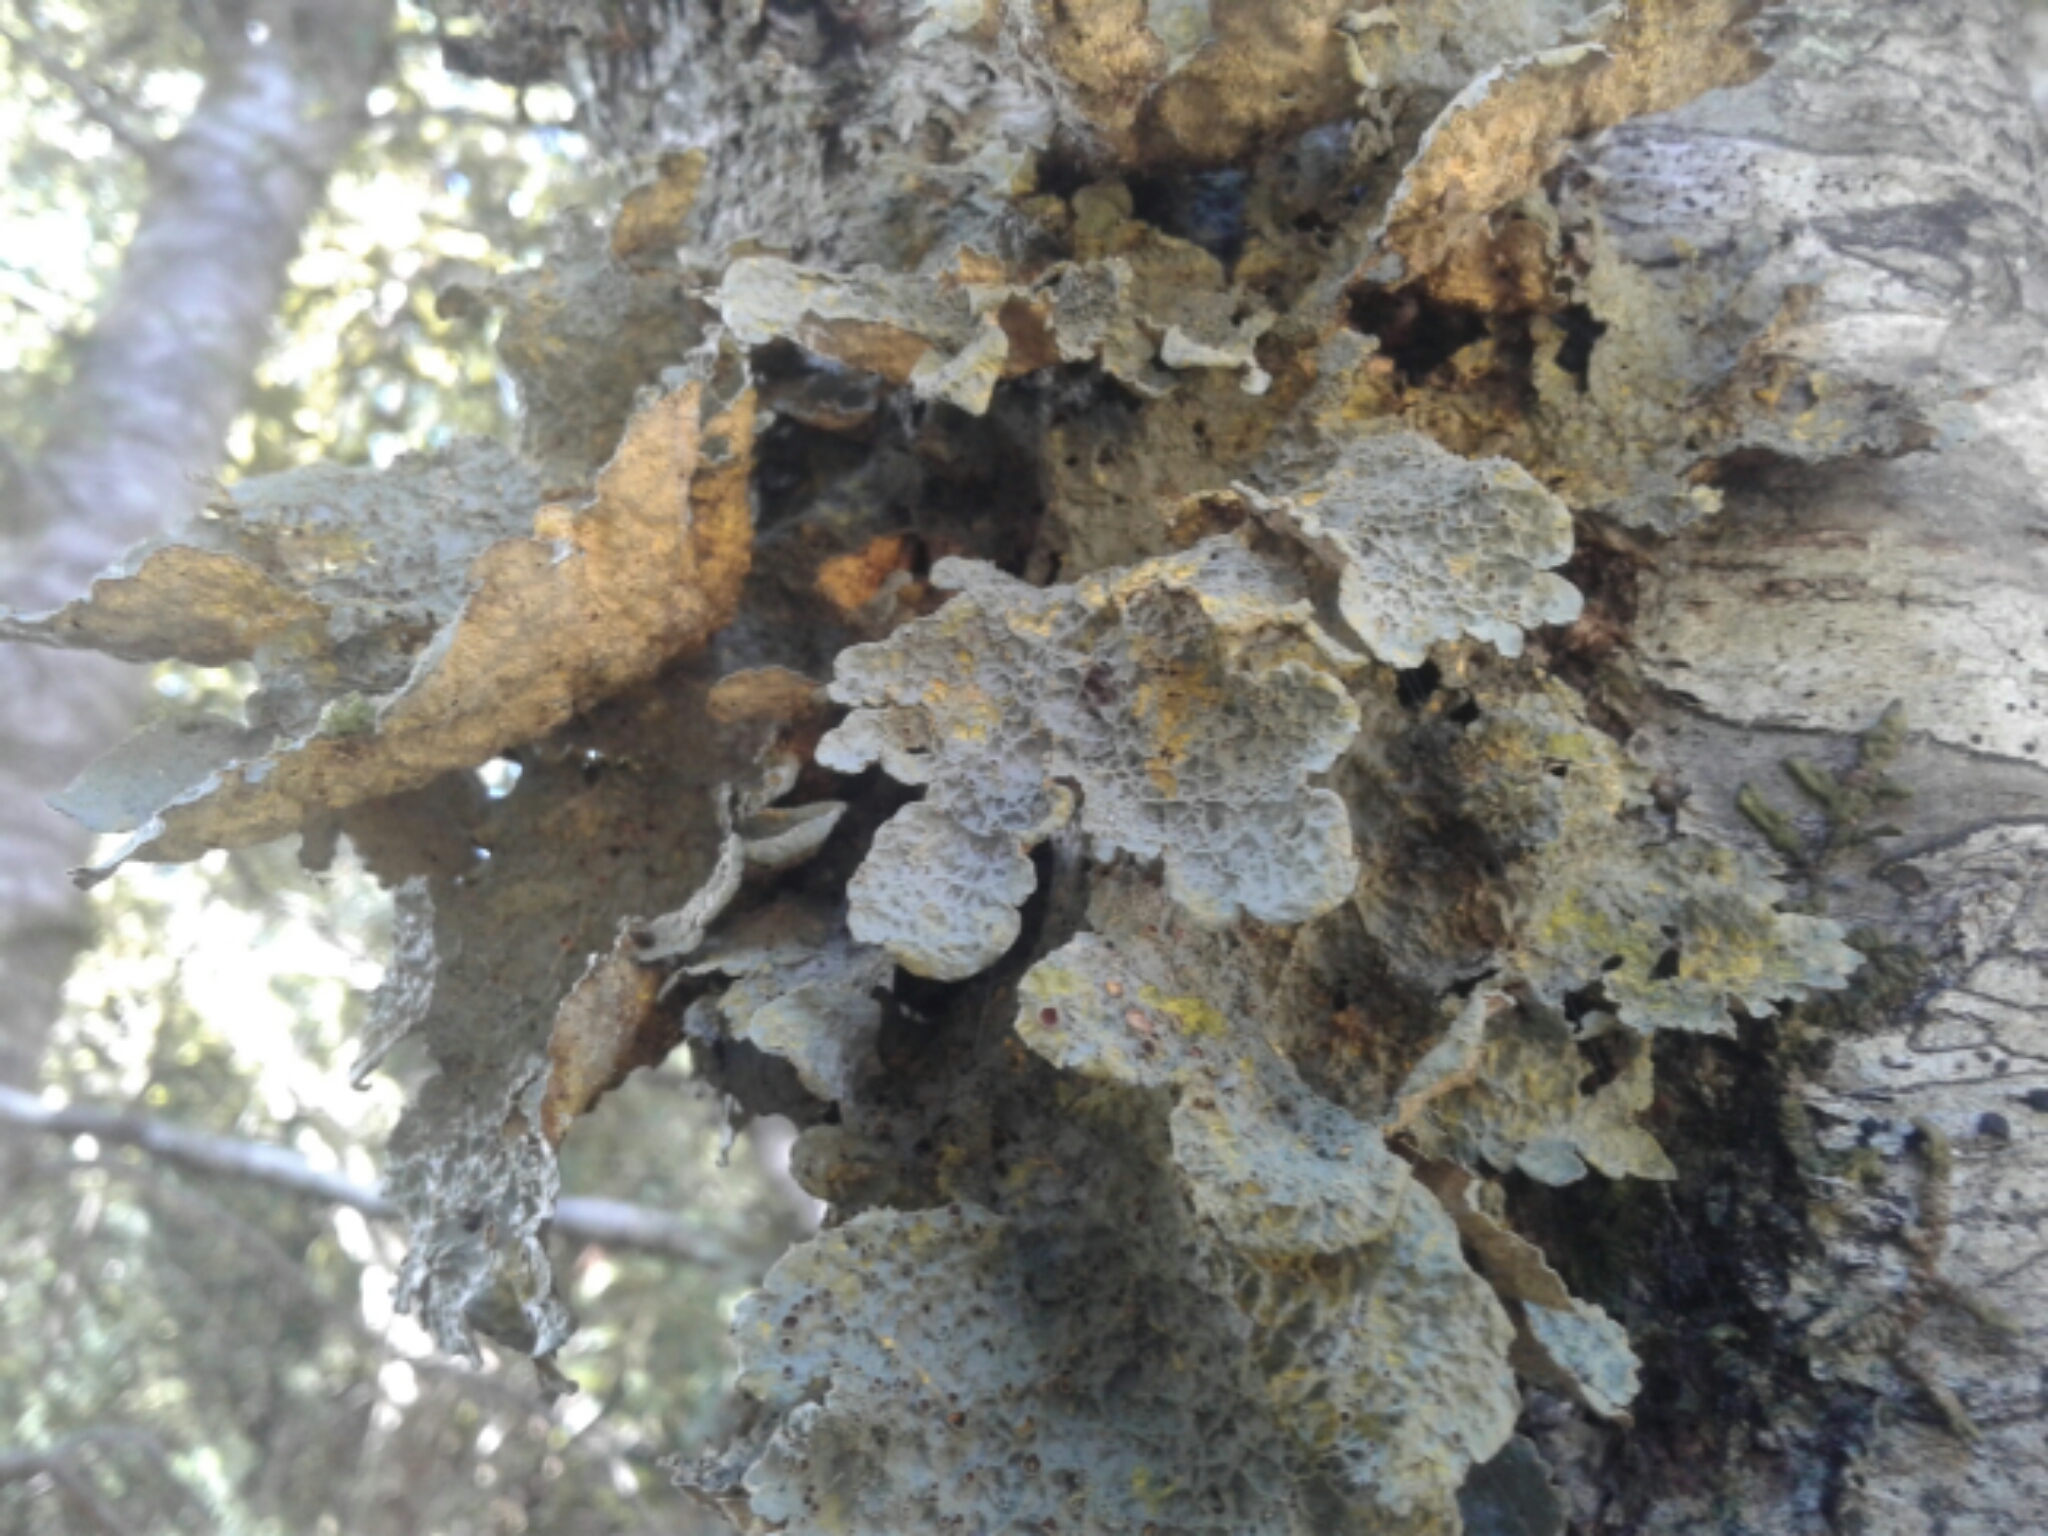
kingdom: Fungi
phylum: Ascomycota
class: Lecanoromycetes
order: Peltigerales
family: Lobariaceae
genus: Yarrumia
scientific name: Yarrumia colensoi
